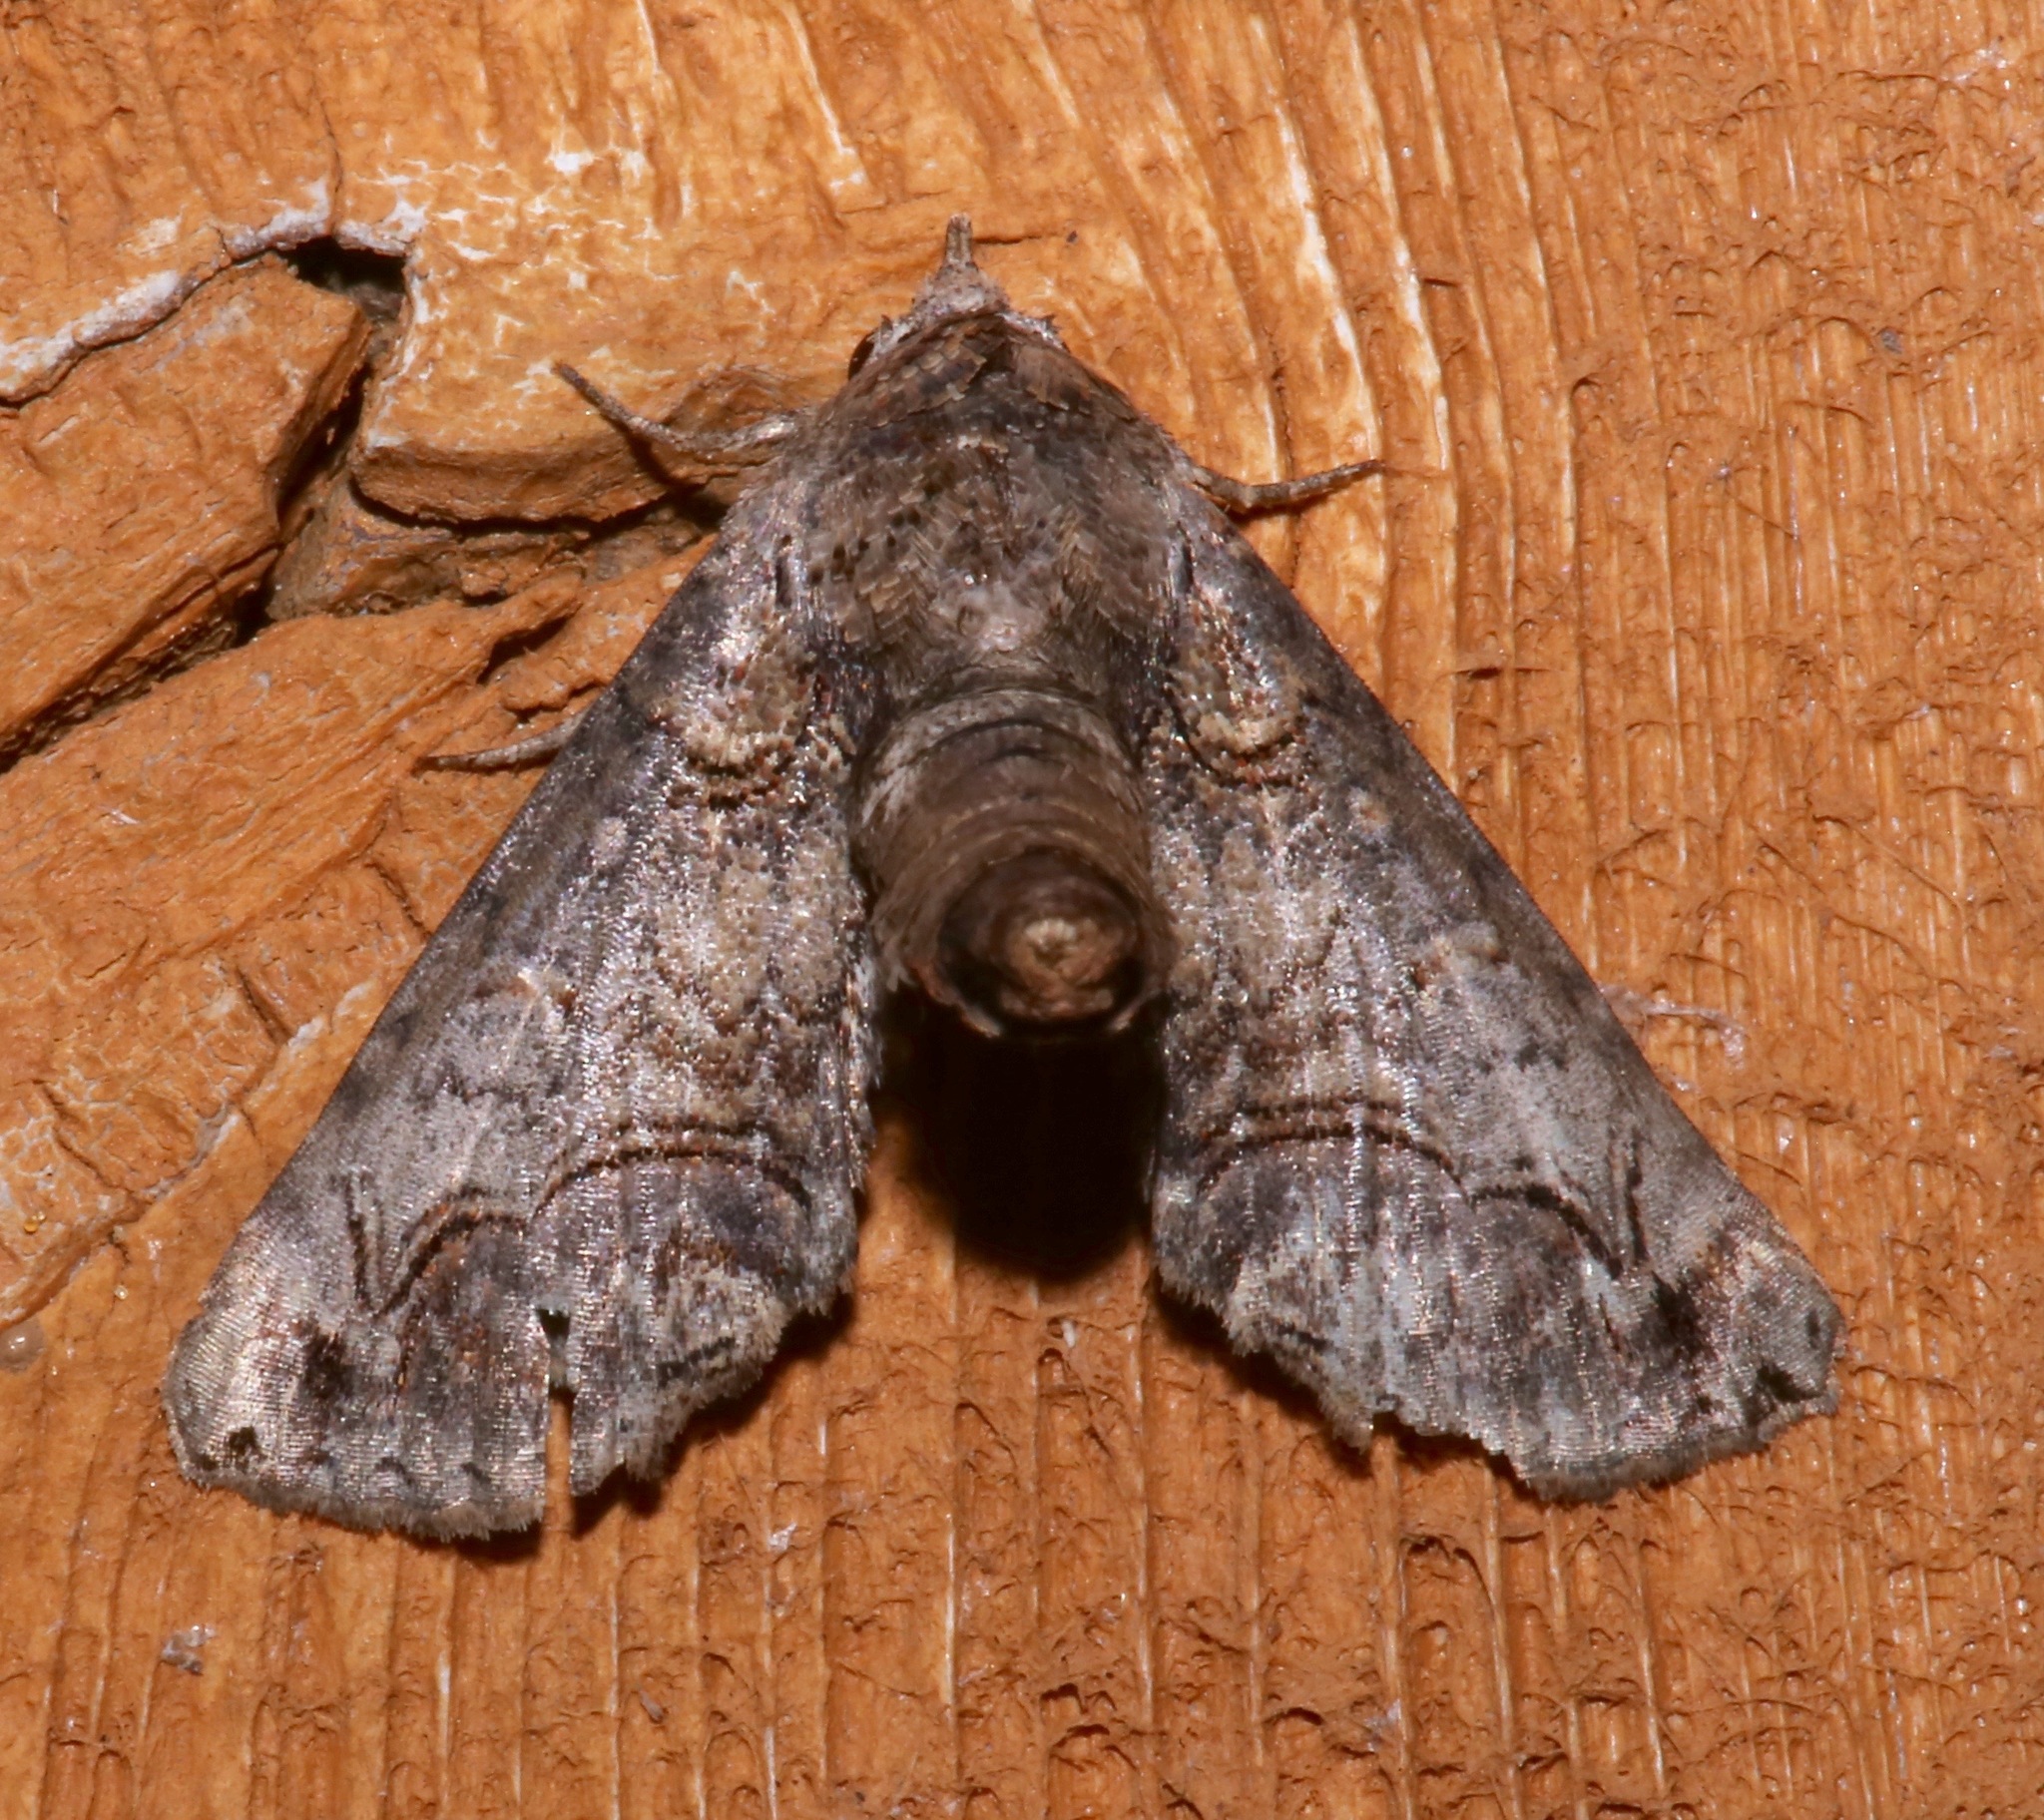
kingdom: Animalia
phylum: Arthropoda
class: Insecta
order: Lepidoptera
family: Euteliidae
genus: Paectes
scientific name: Paectes abrostoloides
